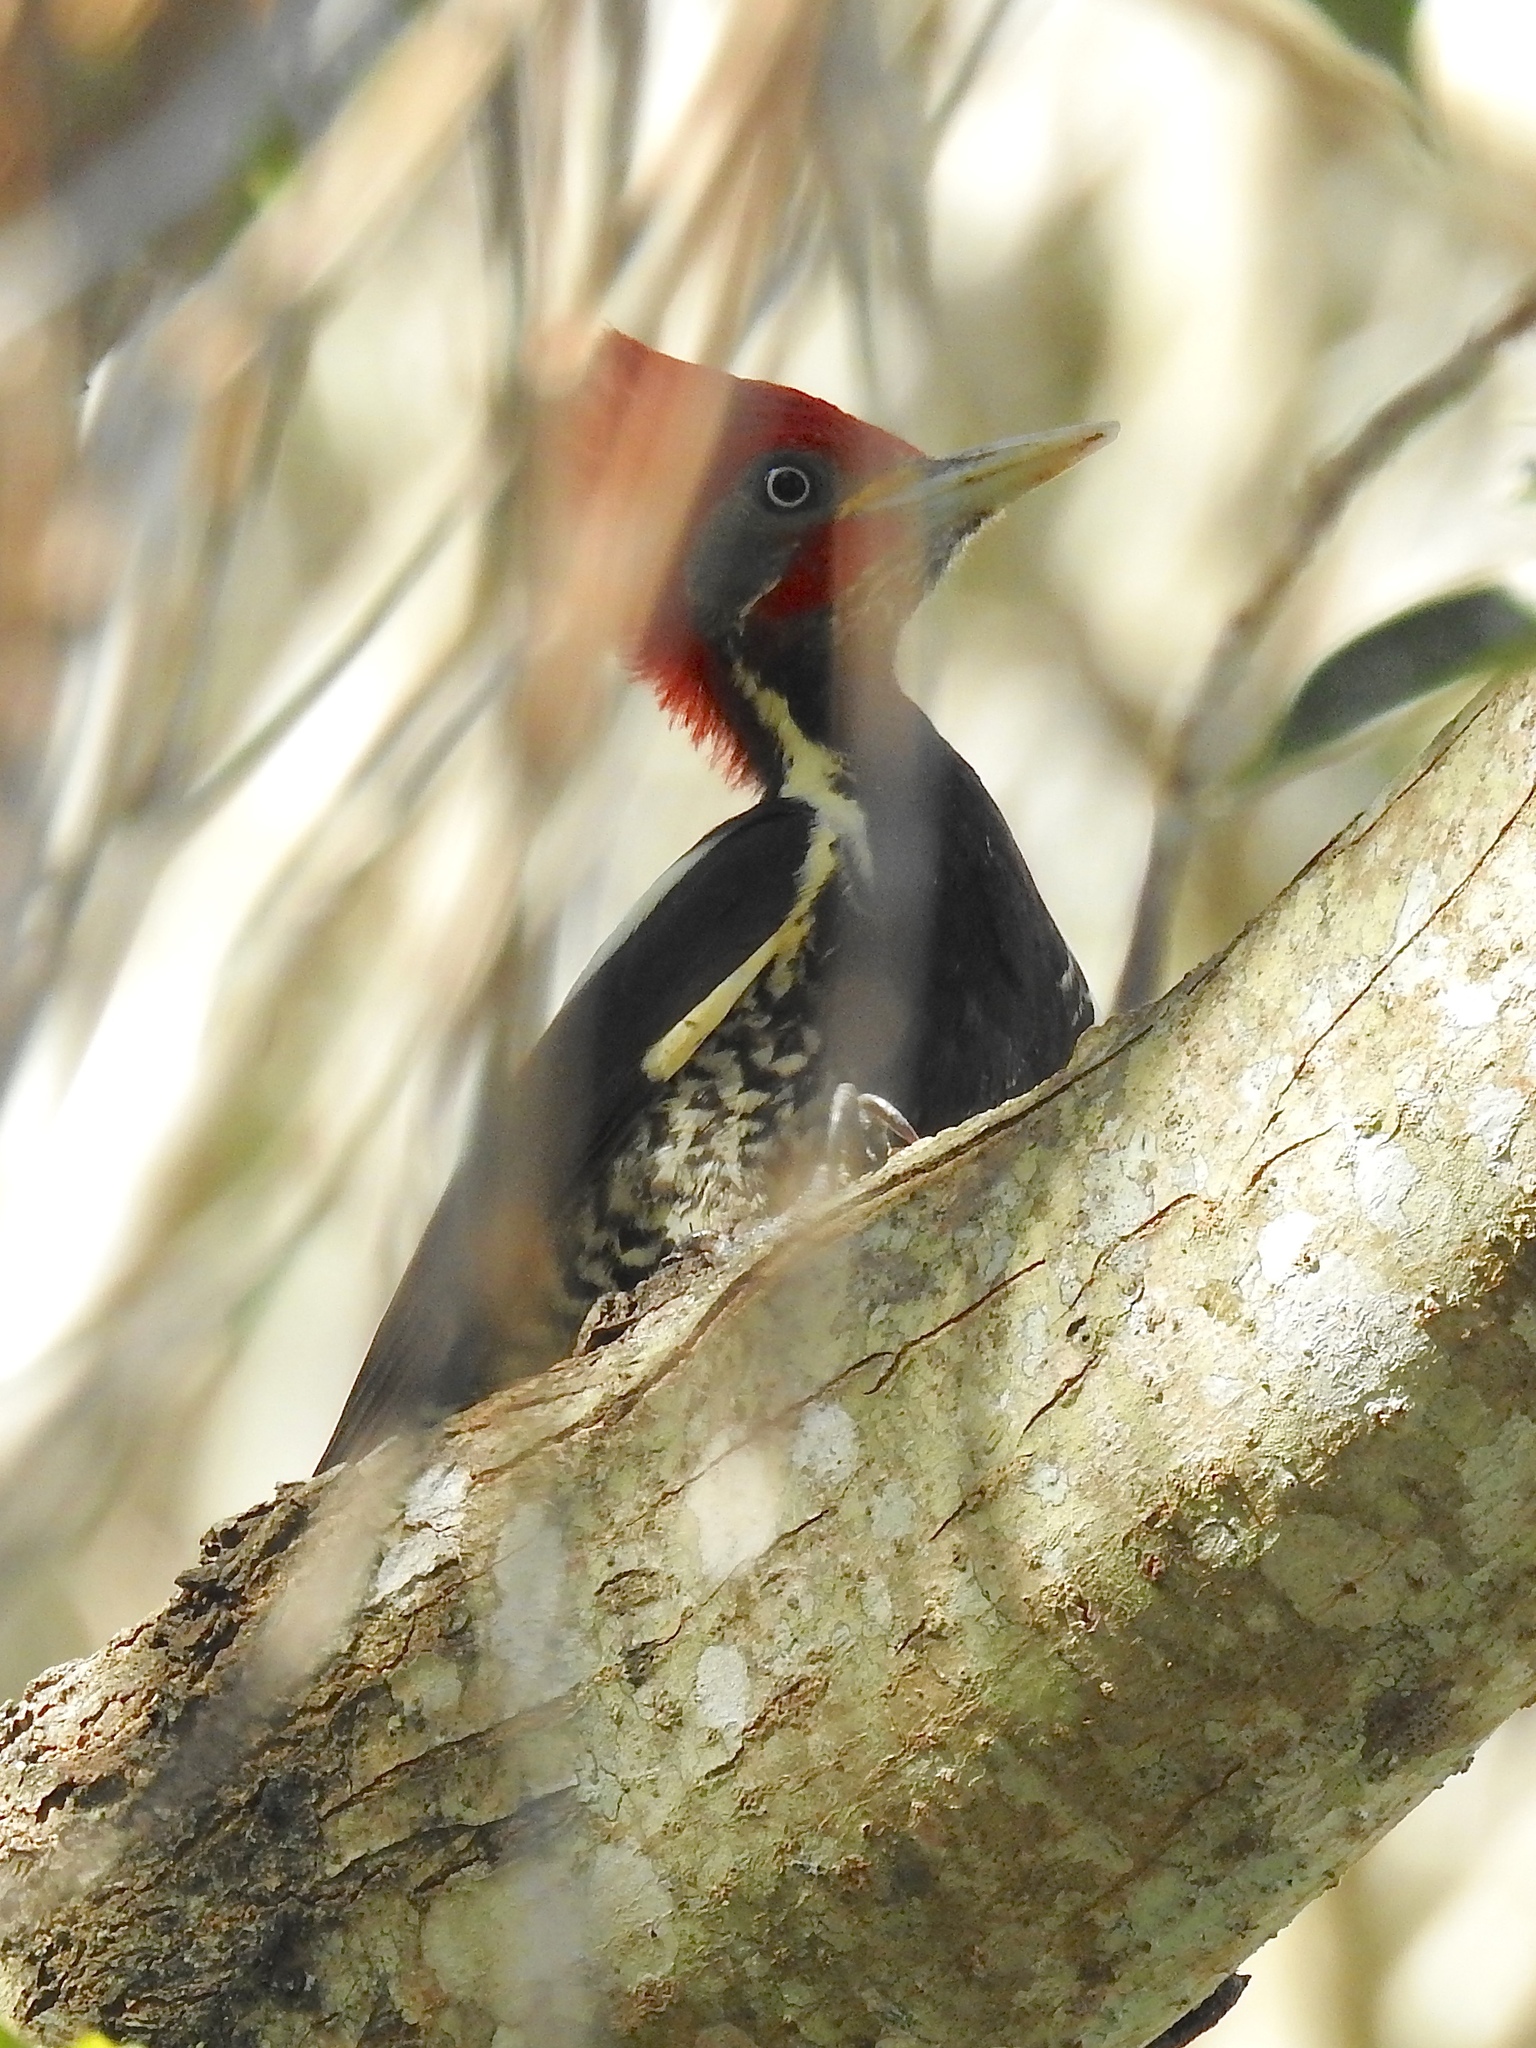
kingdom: Animalia
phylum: Chordata
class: Aves
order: Piciformes
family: Picidae
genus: Dryocopus
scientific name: Dryocopus lineatus
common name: Lineated woodpecker
